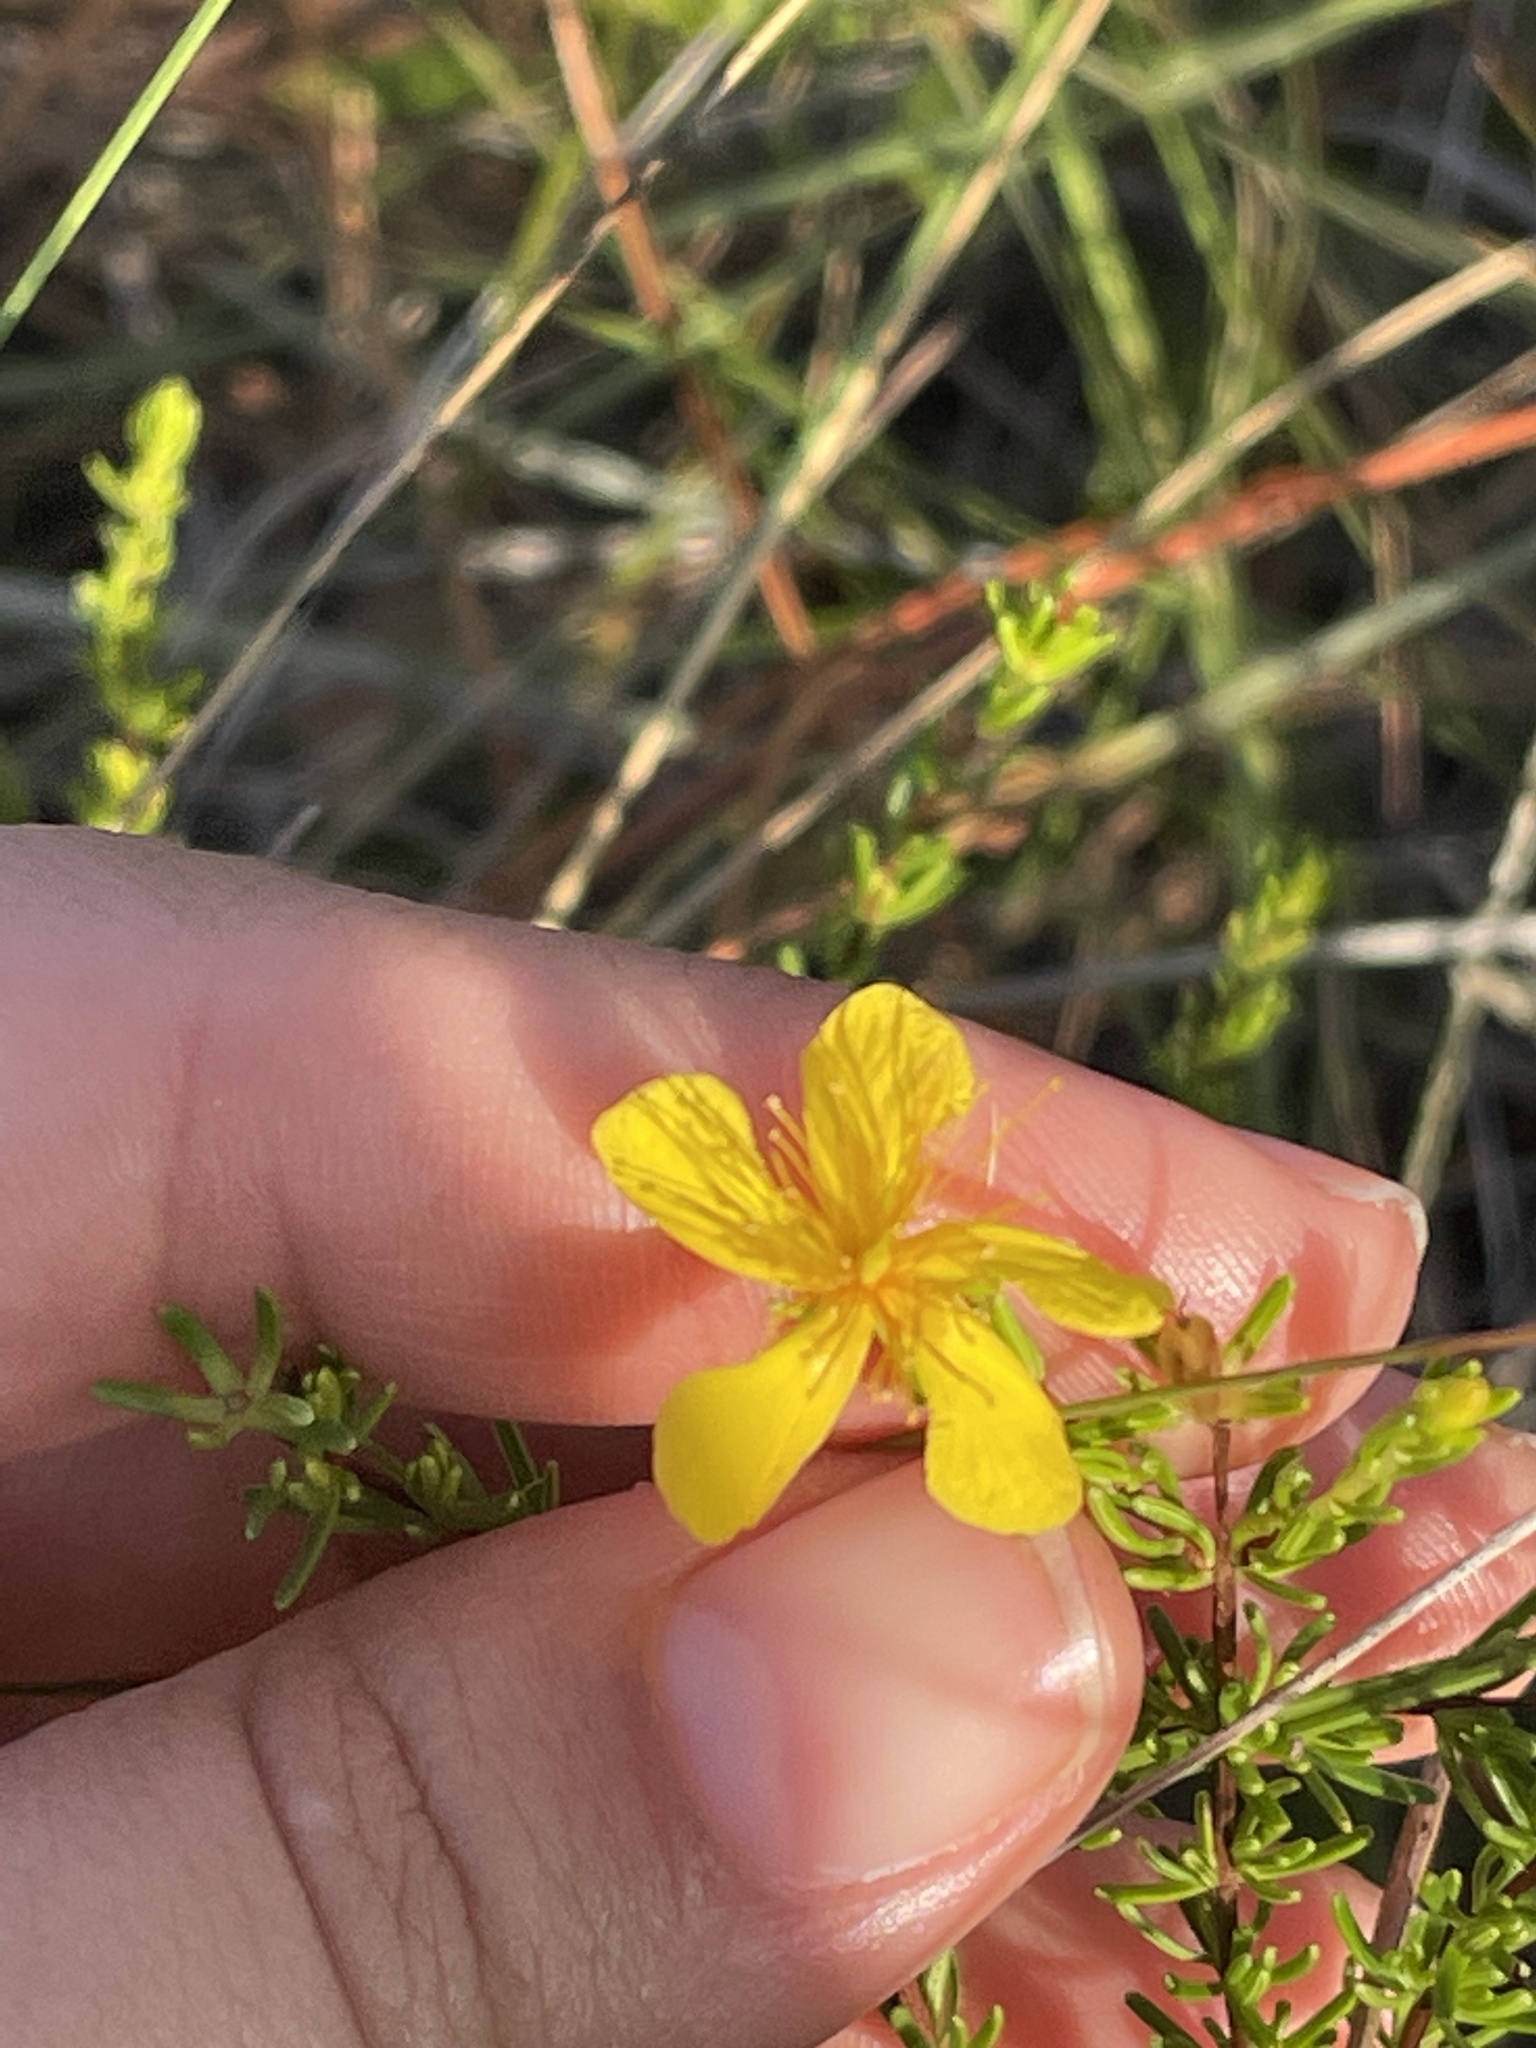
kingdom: Plantae
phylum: Tracheophyta
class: Magnoliopsida
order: Malpighiales
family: Hypericaceae
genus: Hypericum
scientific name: Hypericum tenuifolium
